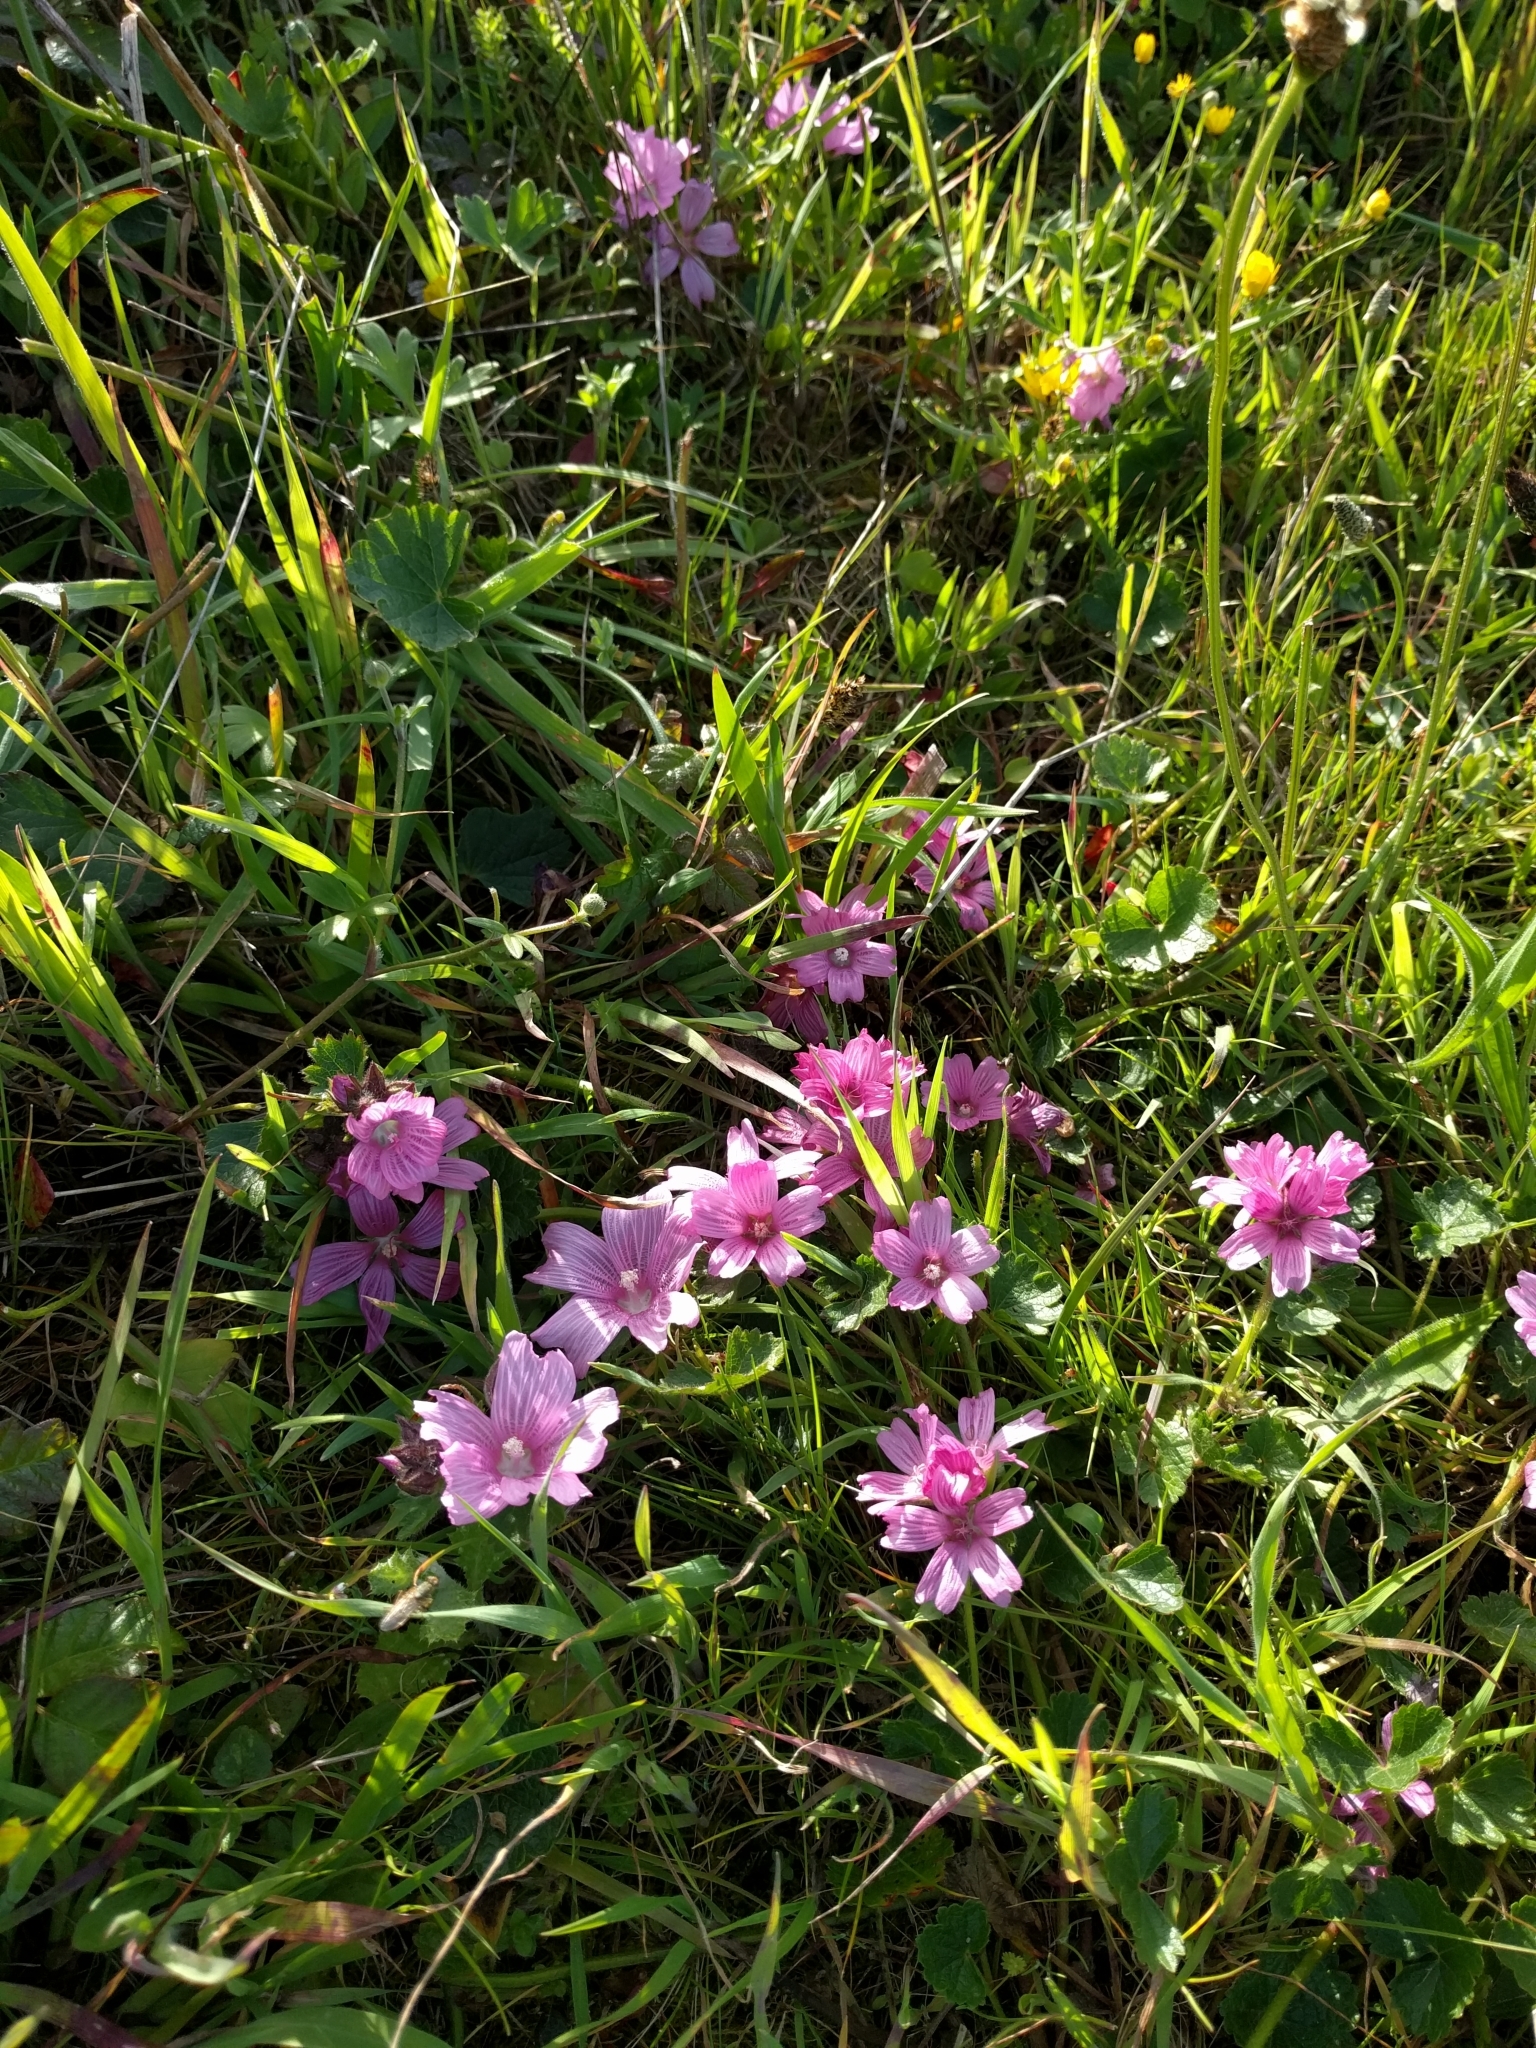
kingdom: Plantae
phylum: Tracheophyta
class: Magnoliopsida
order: Malvales
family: Malvaceae
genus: Sidalcea
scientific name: Sidalcea malviflora
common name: Greek mallow
